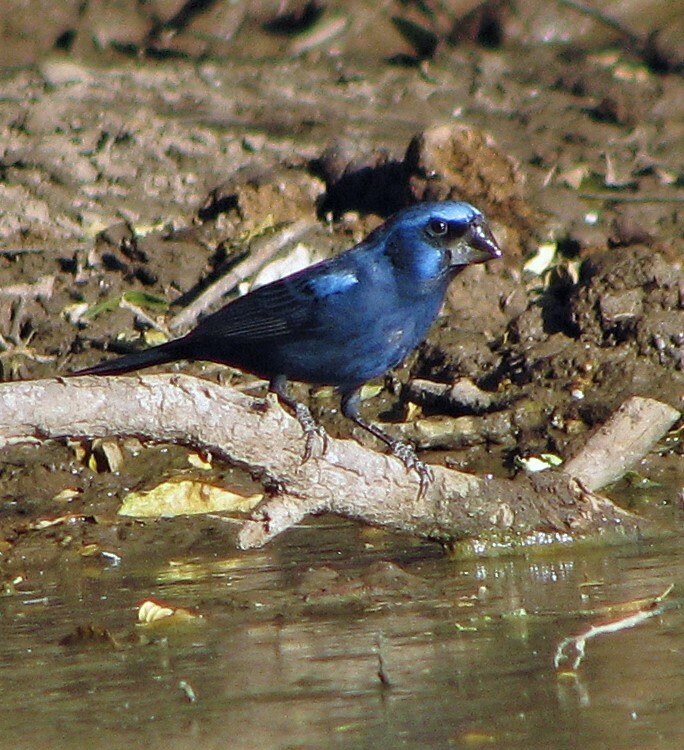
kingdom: Animalia
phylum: Chordata
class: Aves
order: Passeriformes
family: Cardinalidae
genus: Cyanoloxia
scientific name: Cyanoloxia brissonii
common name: Ultramarine grosbeak
